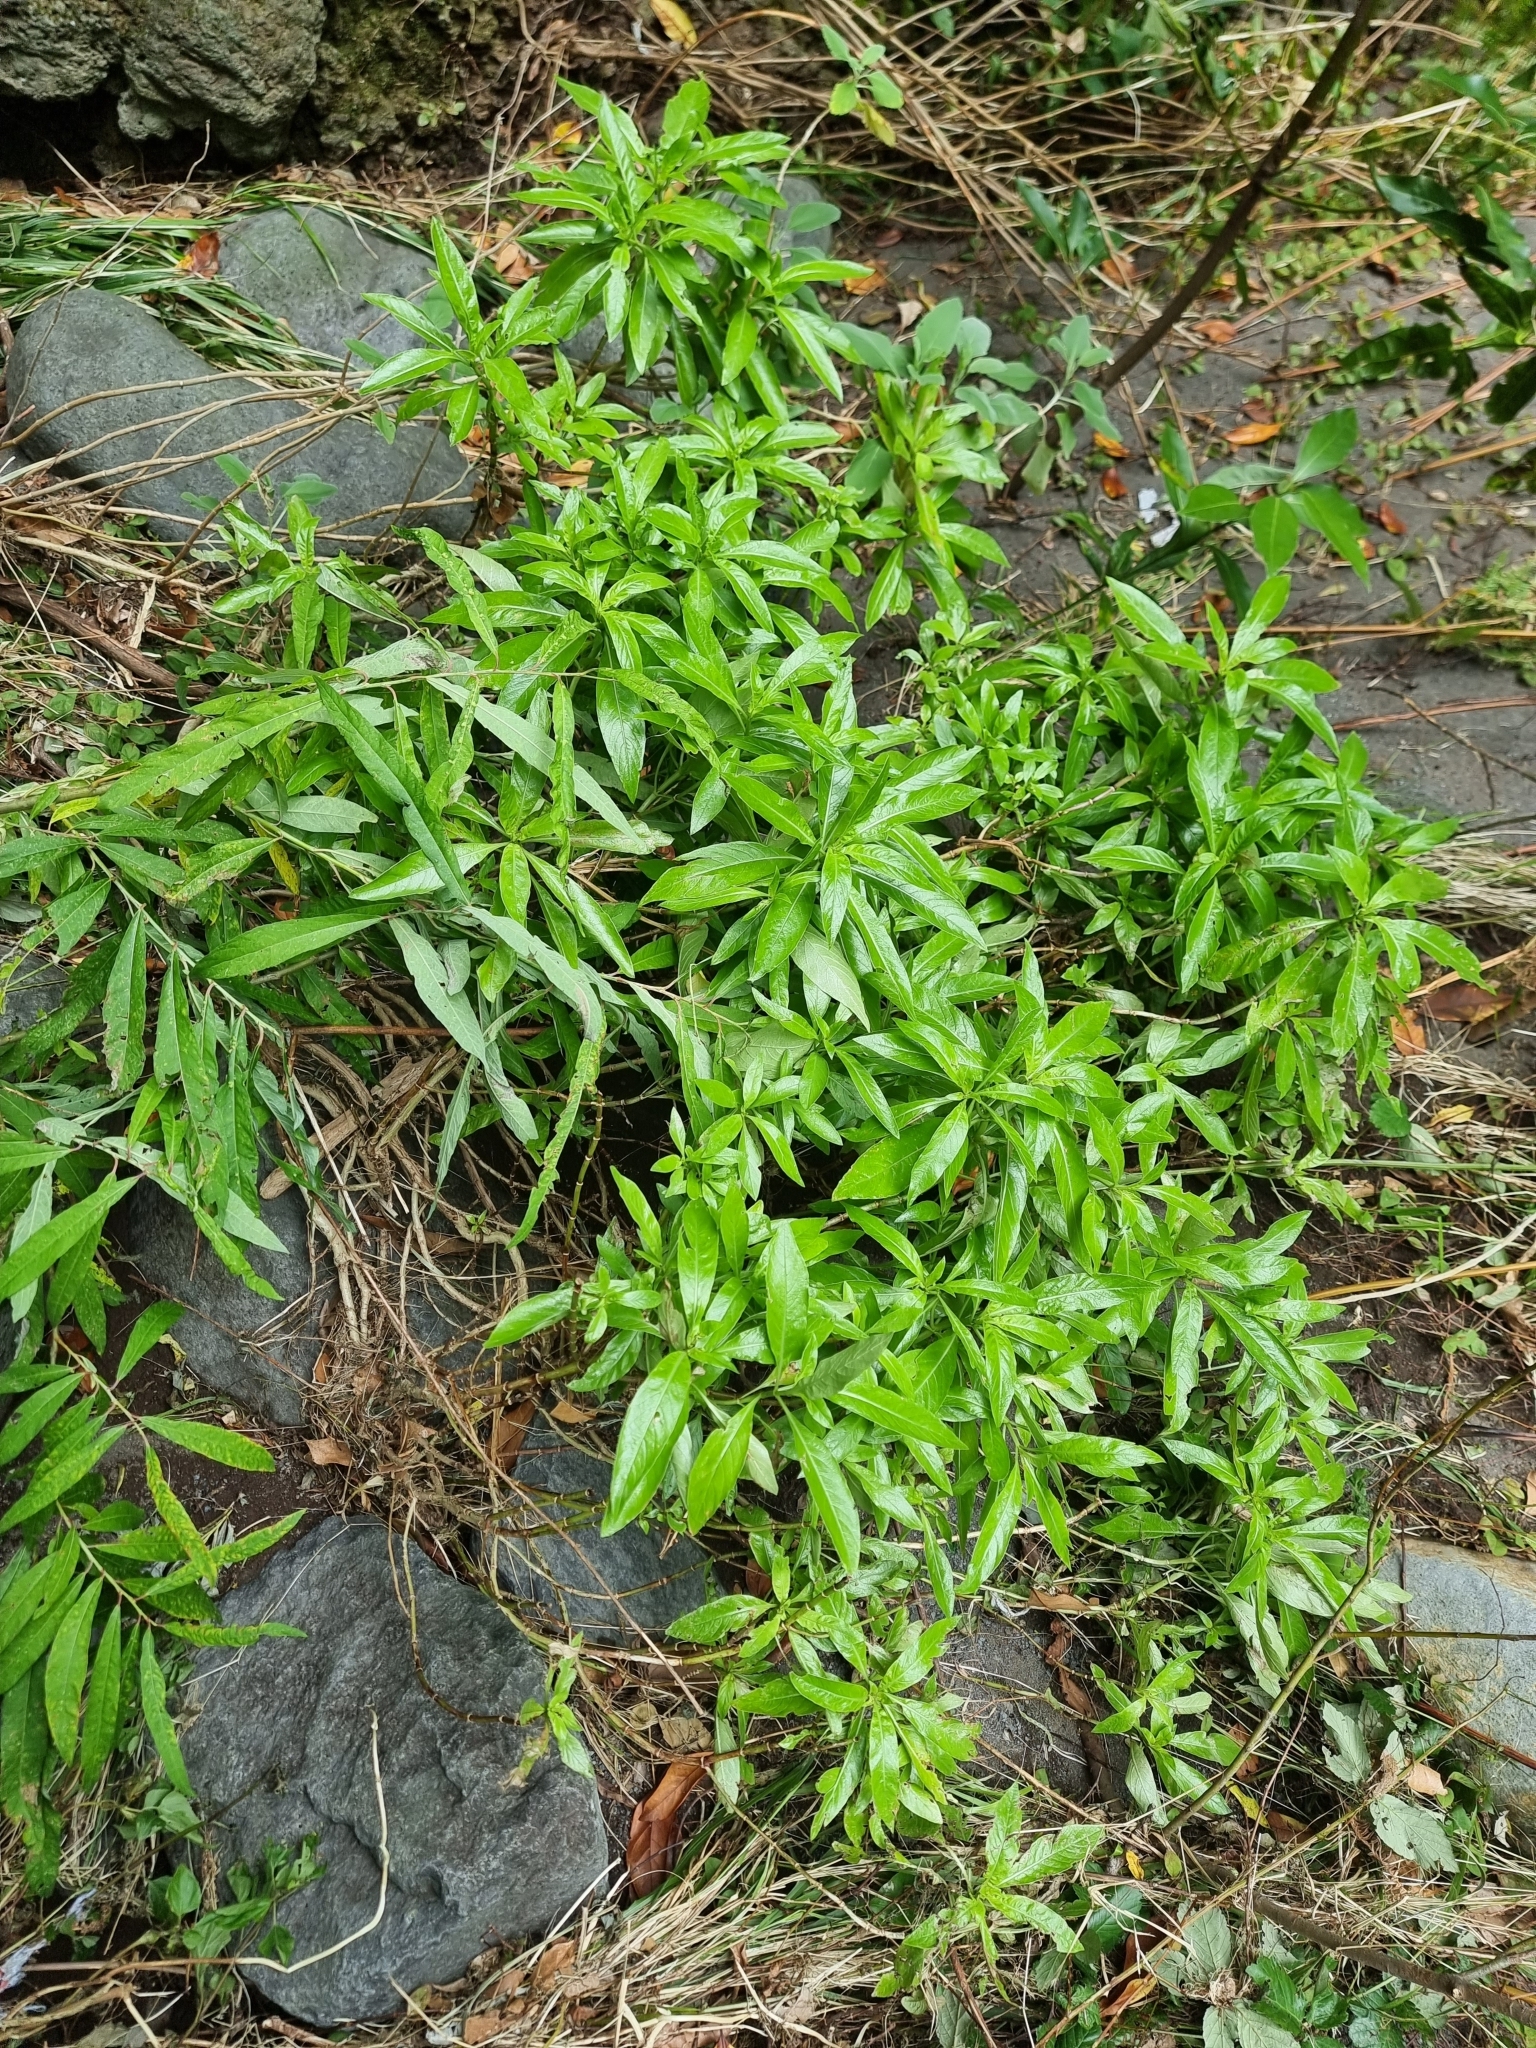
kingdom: Plantae
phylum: Tracheophyta
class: Magnoliopsida
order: Malpighiales
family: Salicaceae
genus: Salix
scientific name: Salix canariensis
